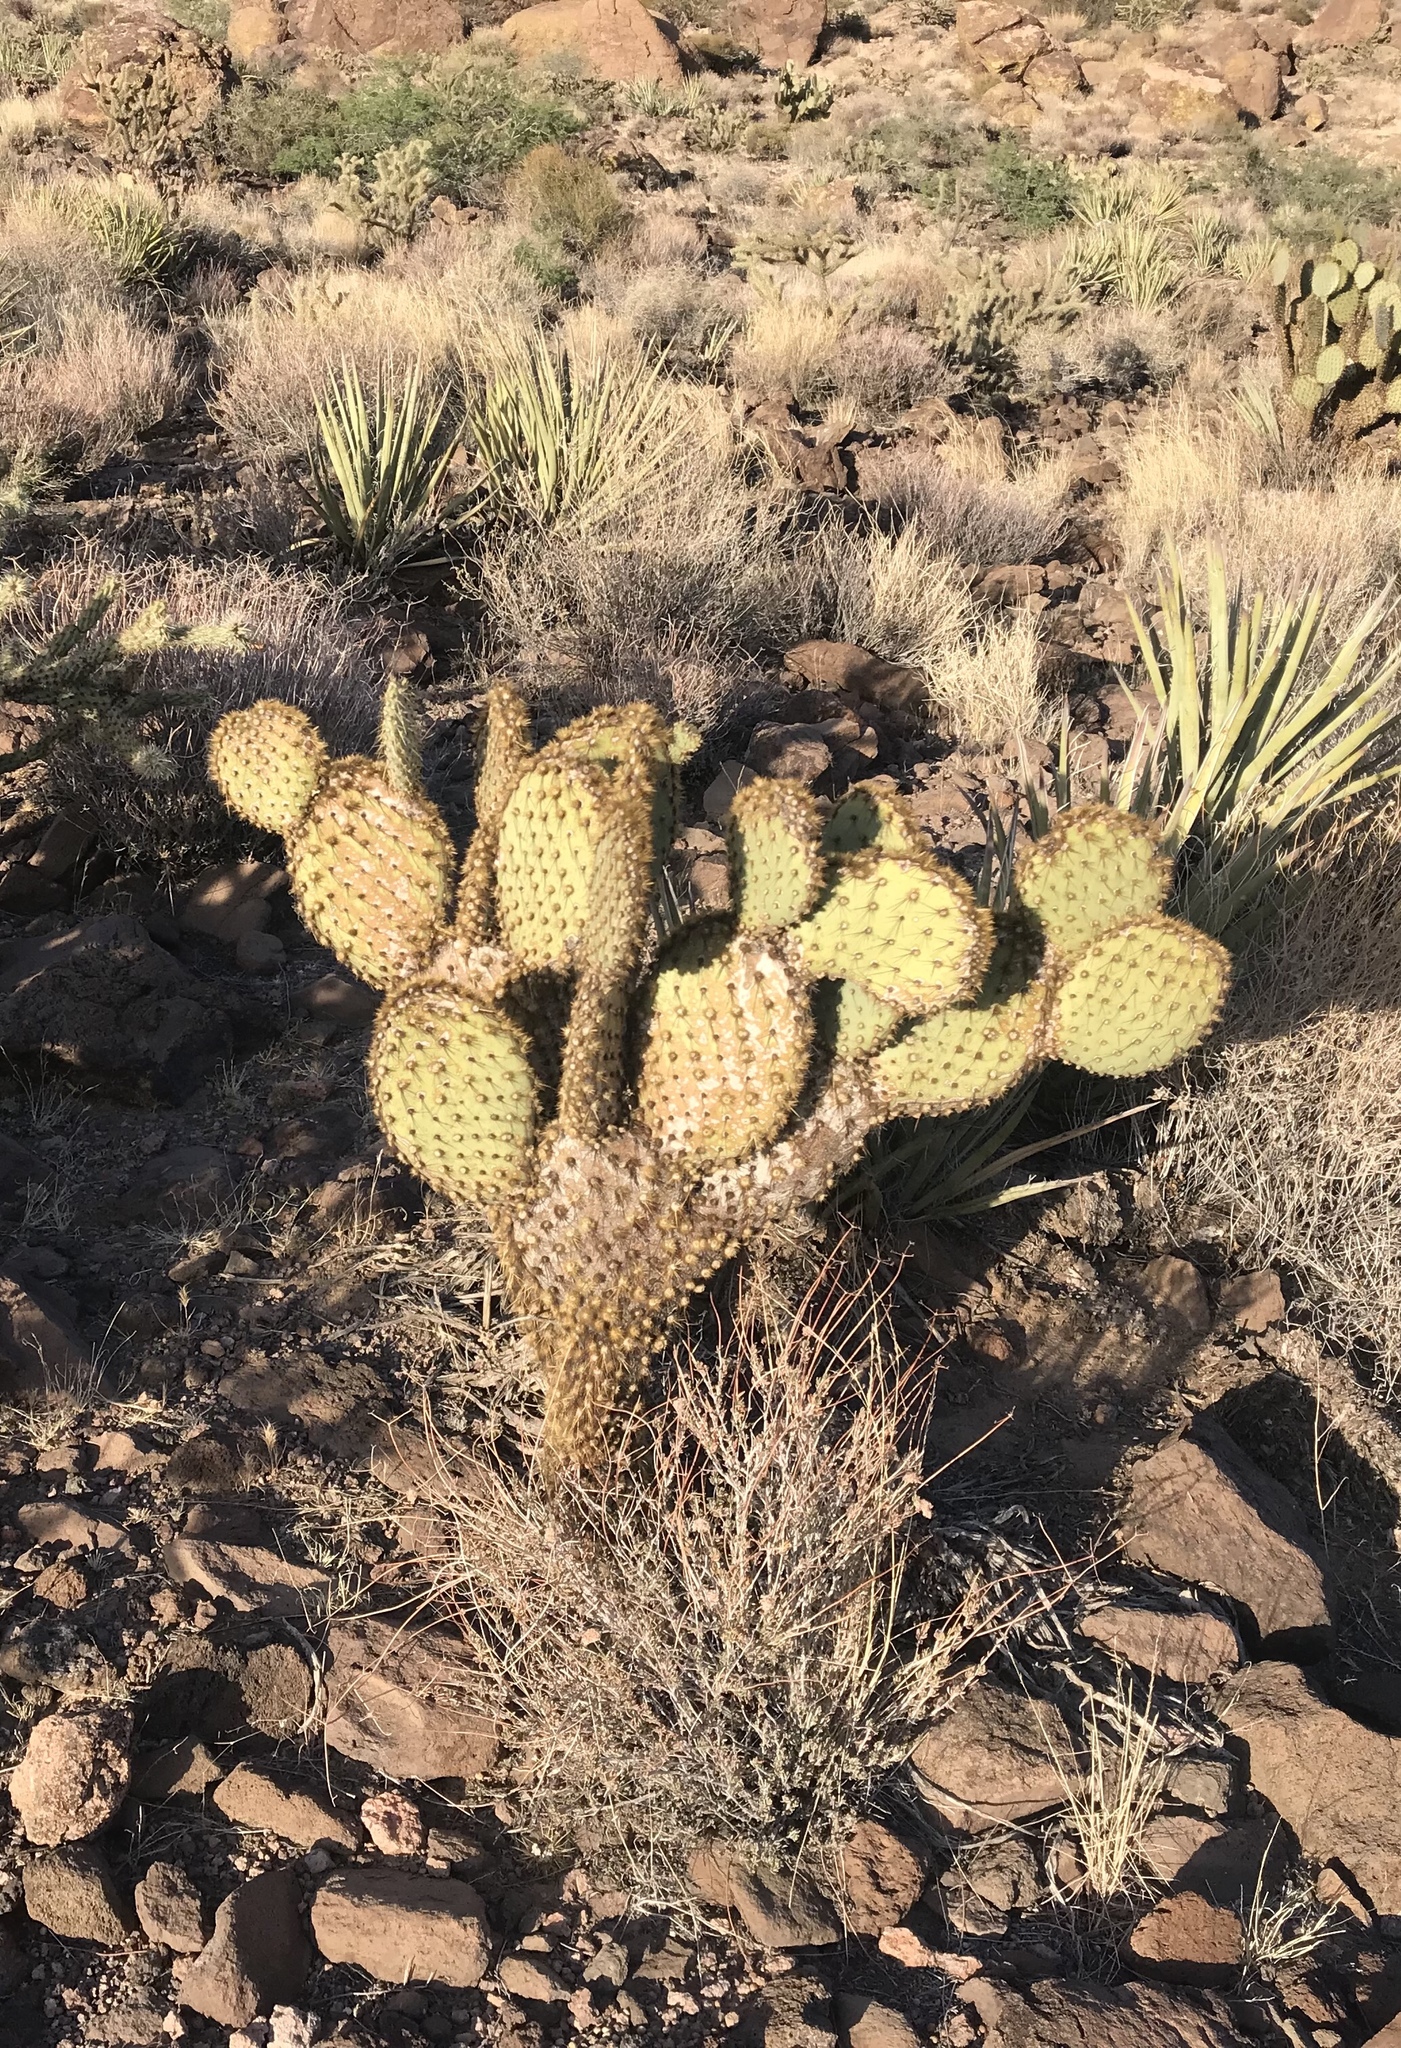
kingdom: Plantae
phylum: Tracheophyta
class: Magnoliopsida
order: Caryophyllales
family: Cactaceae
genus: Opuntia
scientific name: Opuntia chlorotica
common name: Dollar-joint prickly-pear
